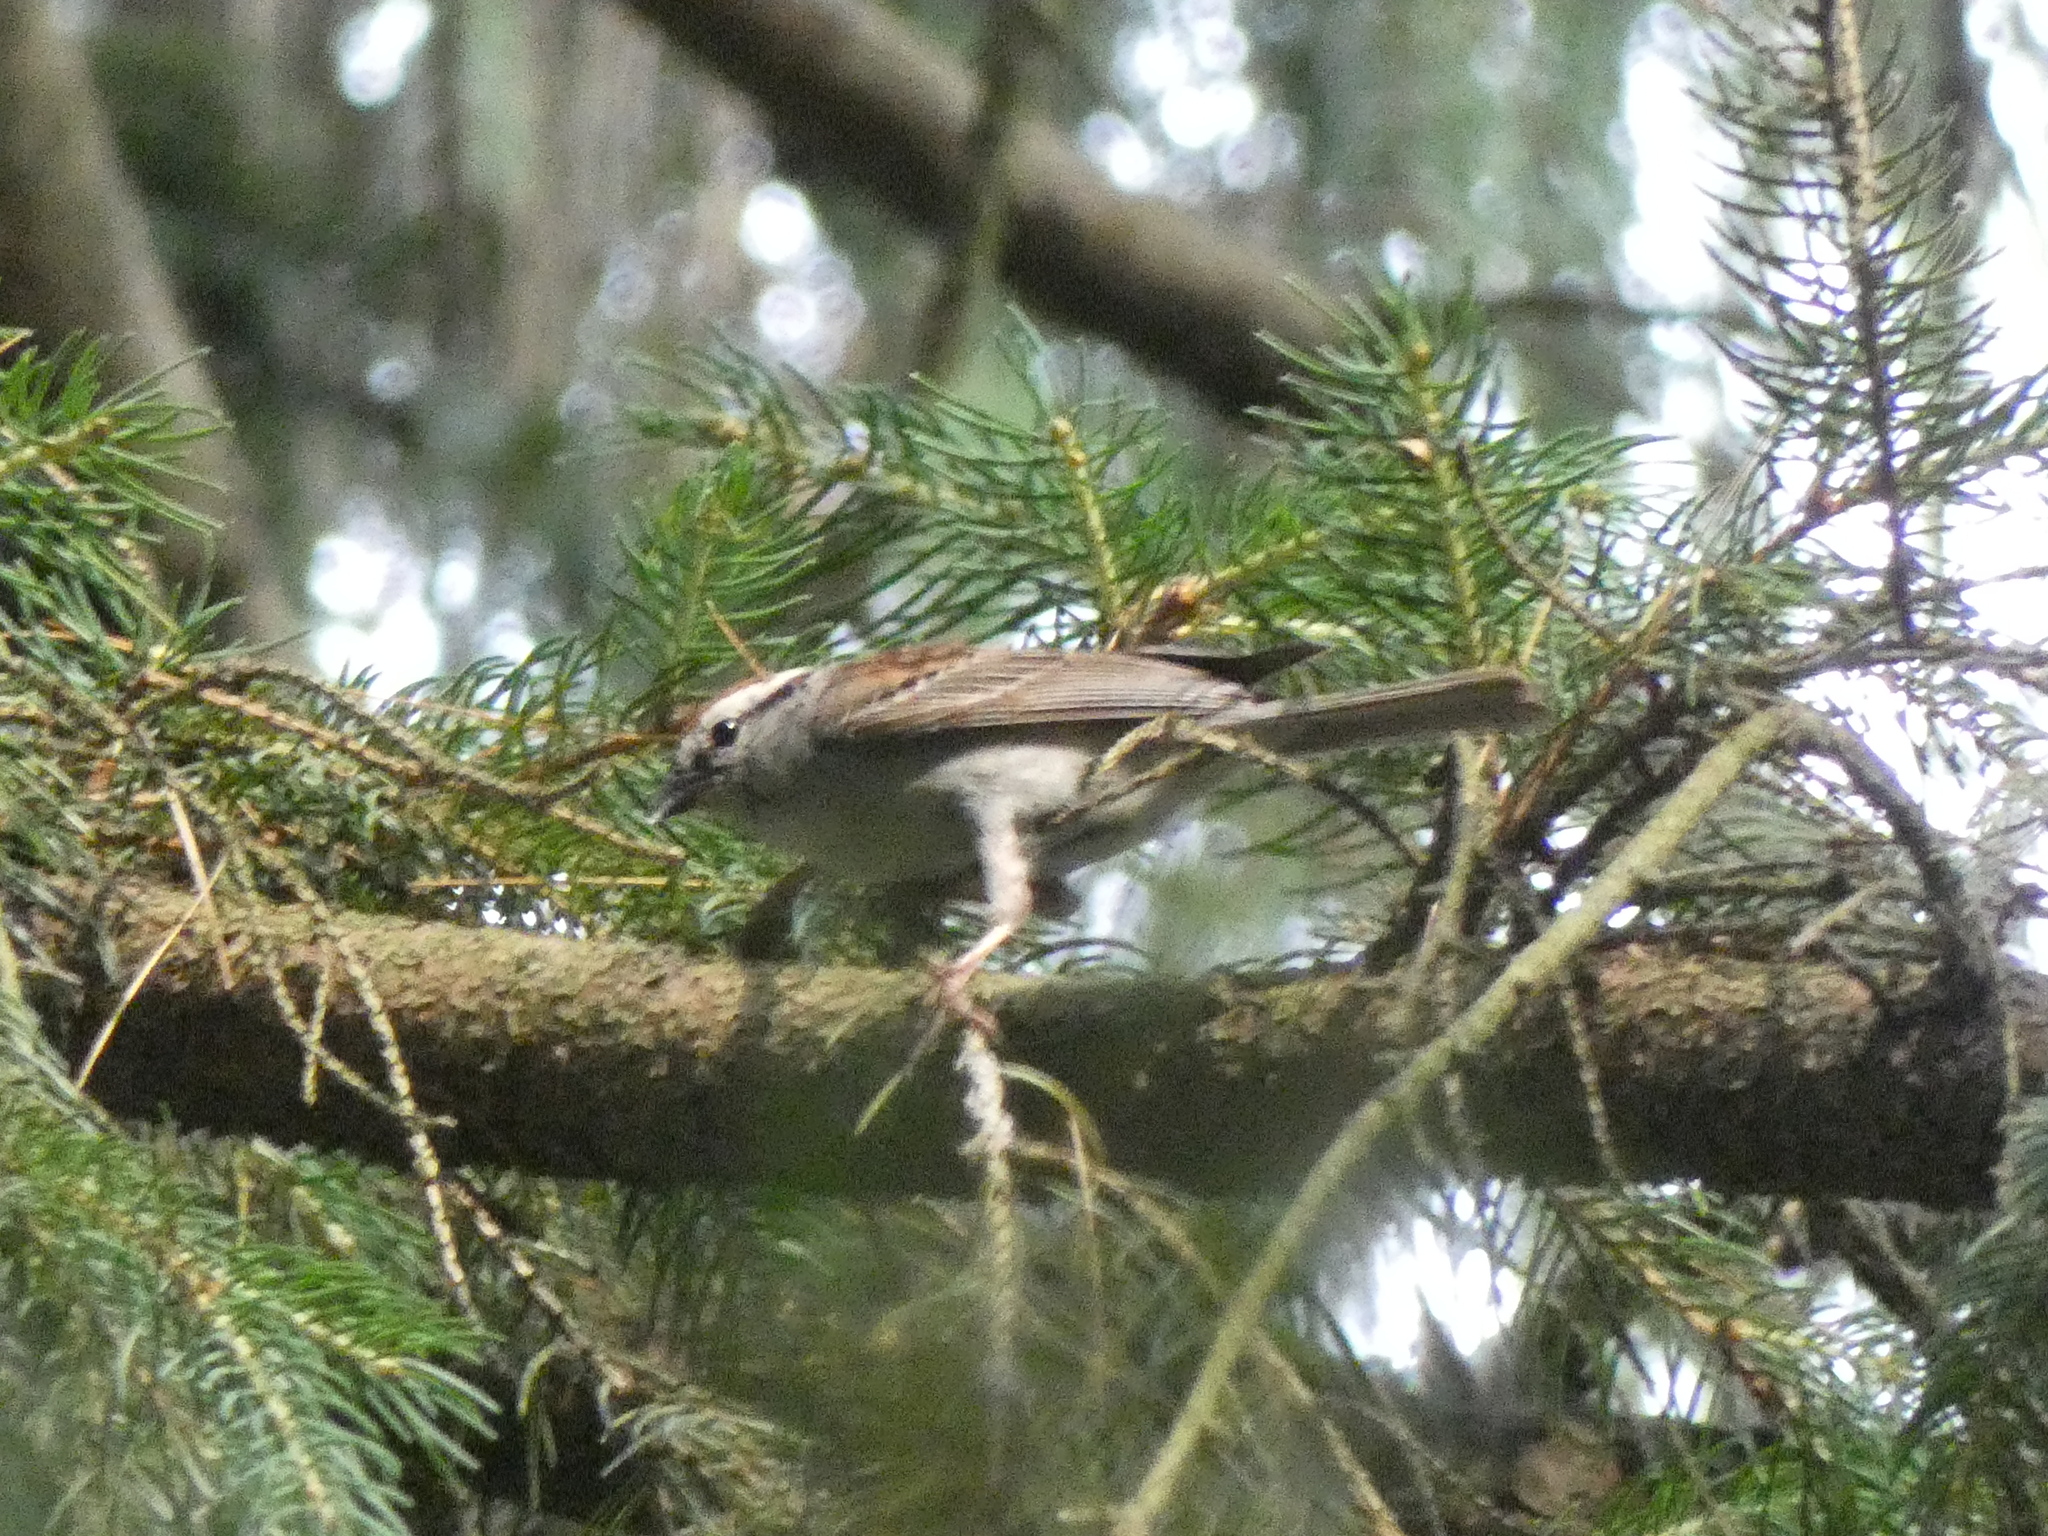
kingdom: Animalia
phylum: Chordata
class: Aves
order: Passeriformes
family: Passerellidae
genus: Spizella
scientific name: Spizella passerina
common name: Chipping sparrow
